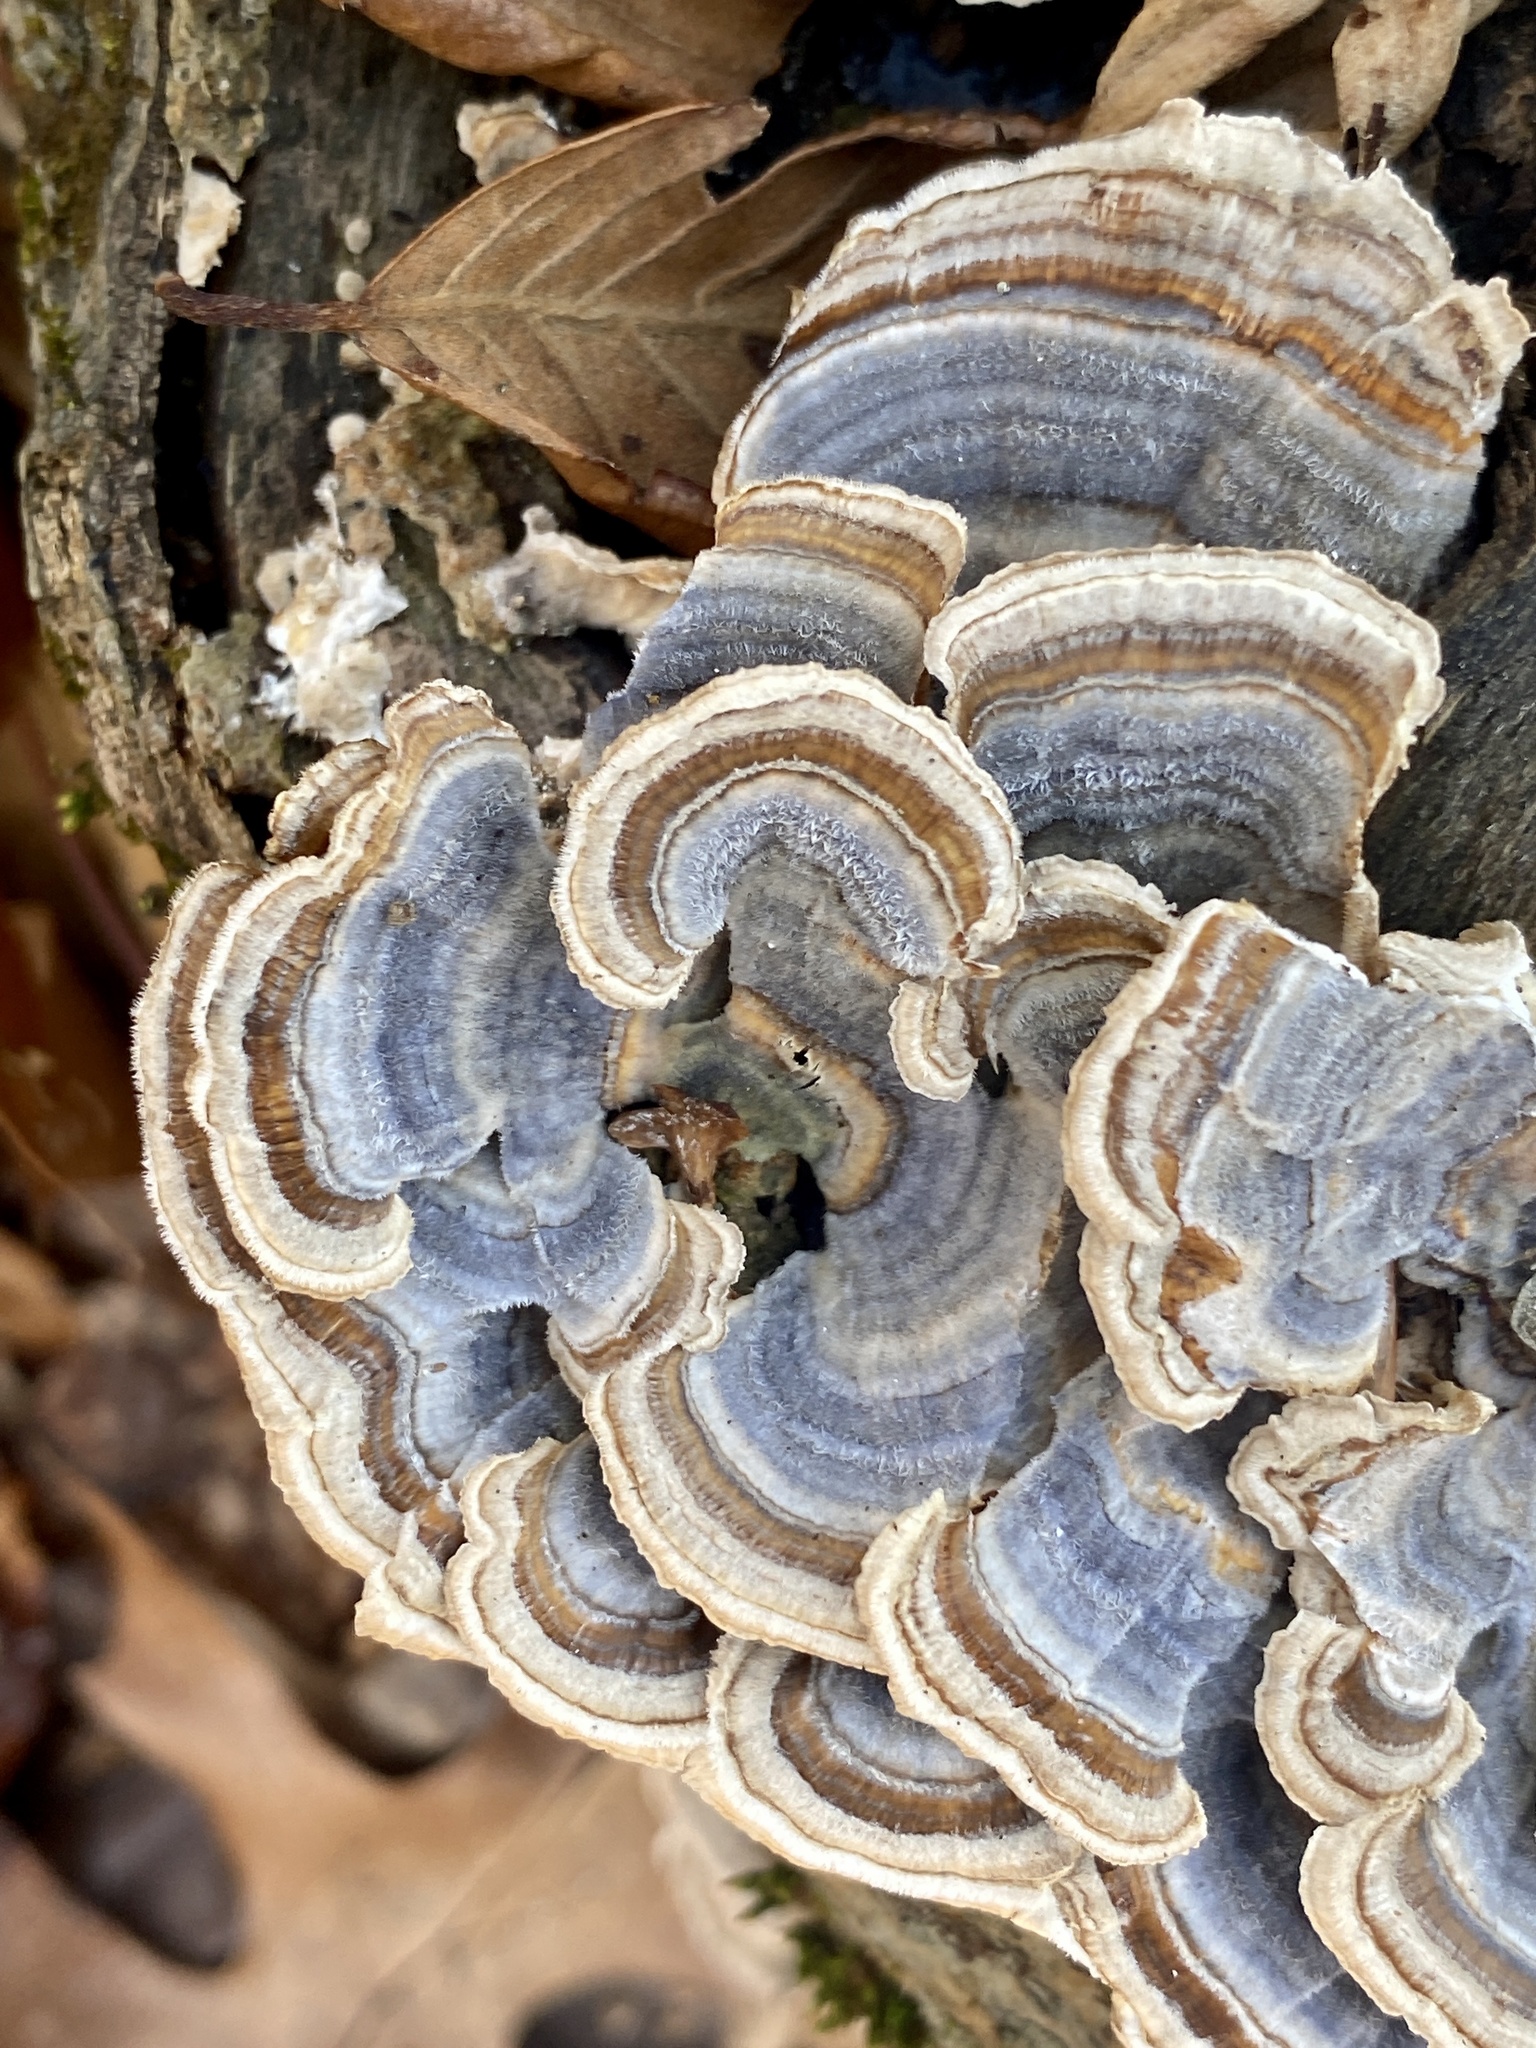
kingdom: Fungi
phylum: Basidiomycota
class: Agaricomycetes
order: Polyporales
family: Polyporaceae
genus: Trametes
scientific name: Trametes versicolor
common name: Turkeytail
